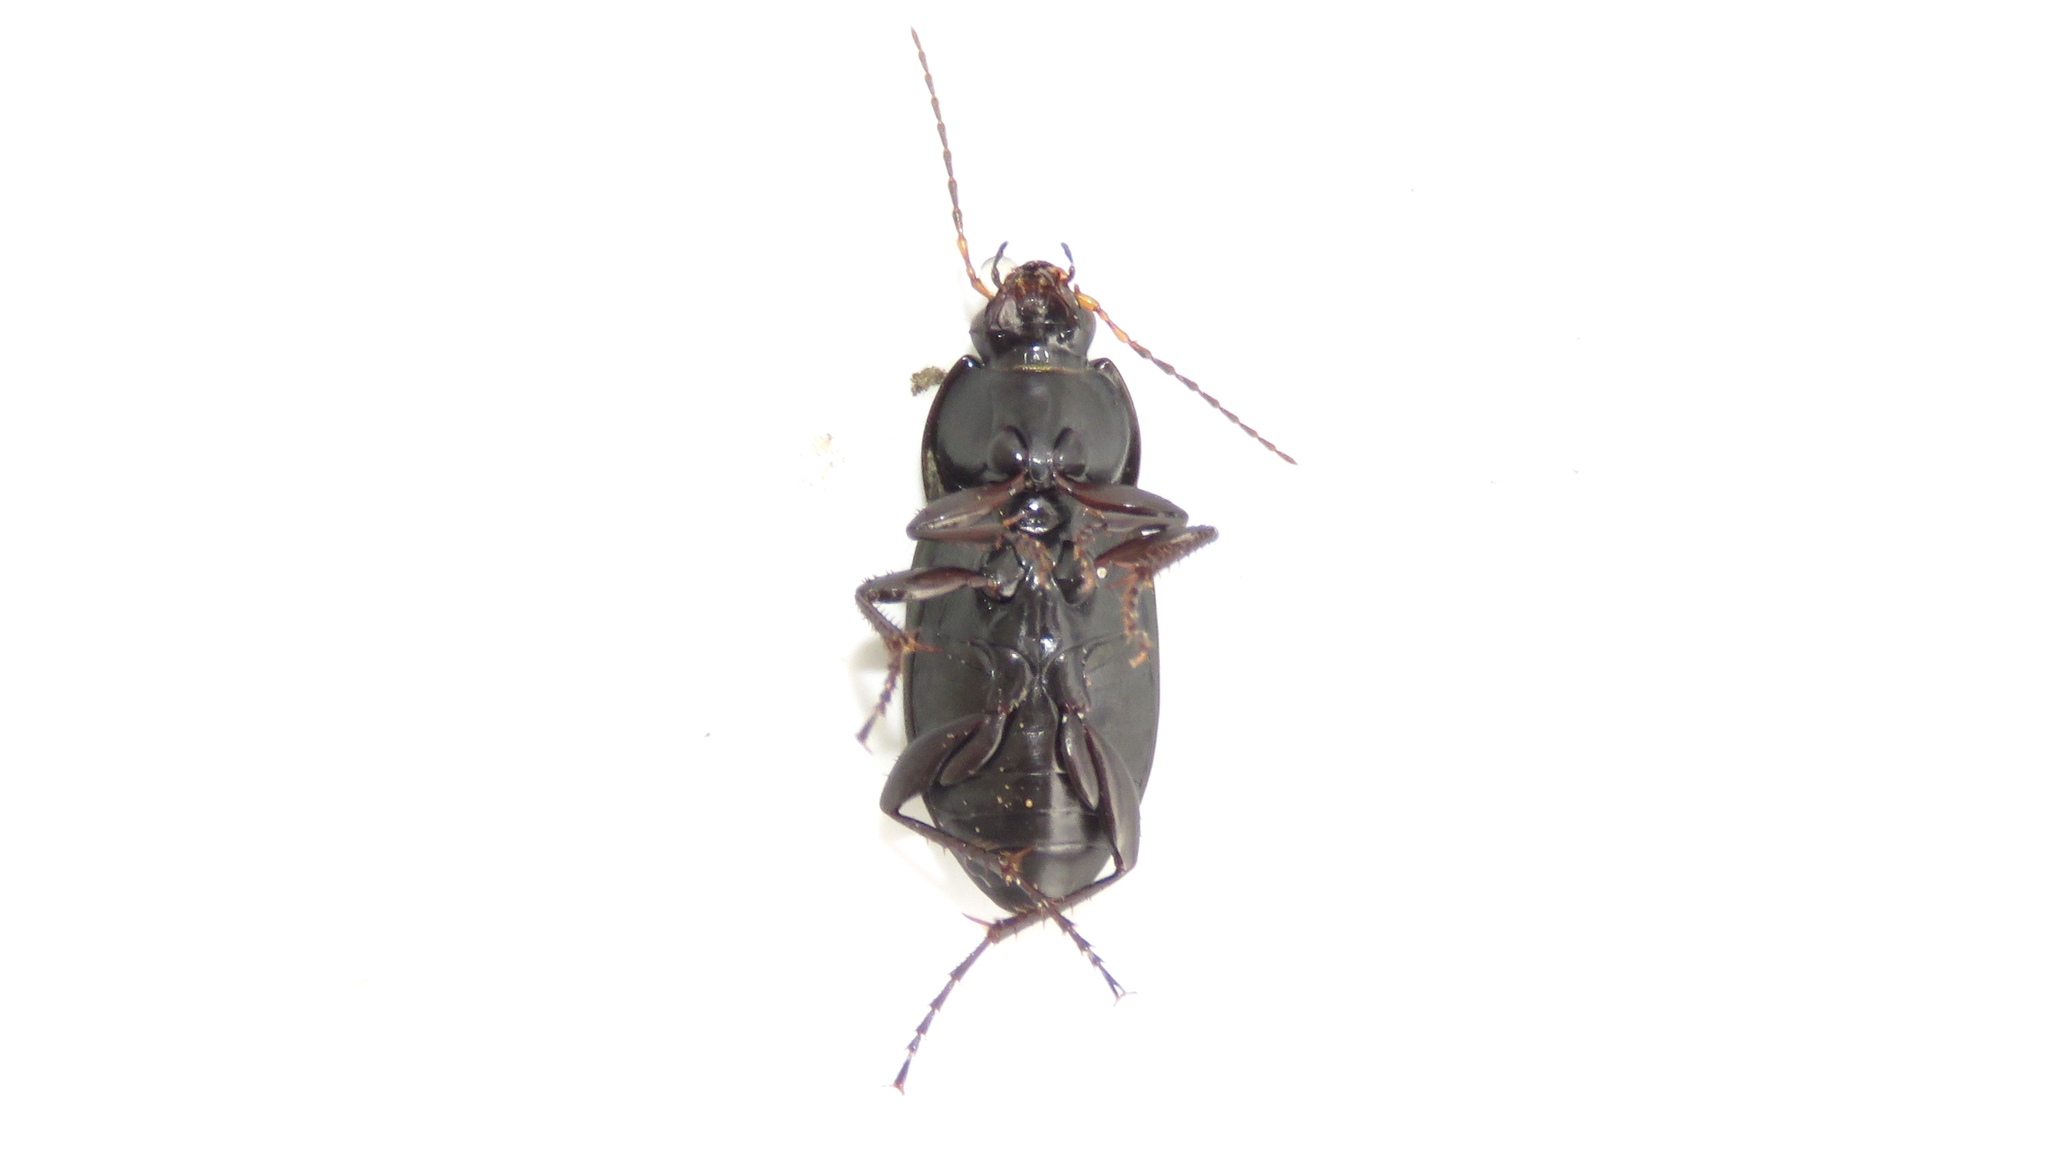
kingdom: Animalia
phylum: Arthropoda
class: Insecta
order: Coleoptera
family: Carabidae
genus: Poecilus
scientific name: Poecilus lucublandus
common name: Woodland ground beetle
